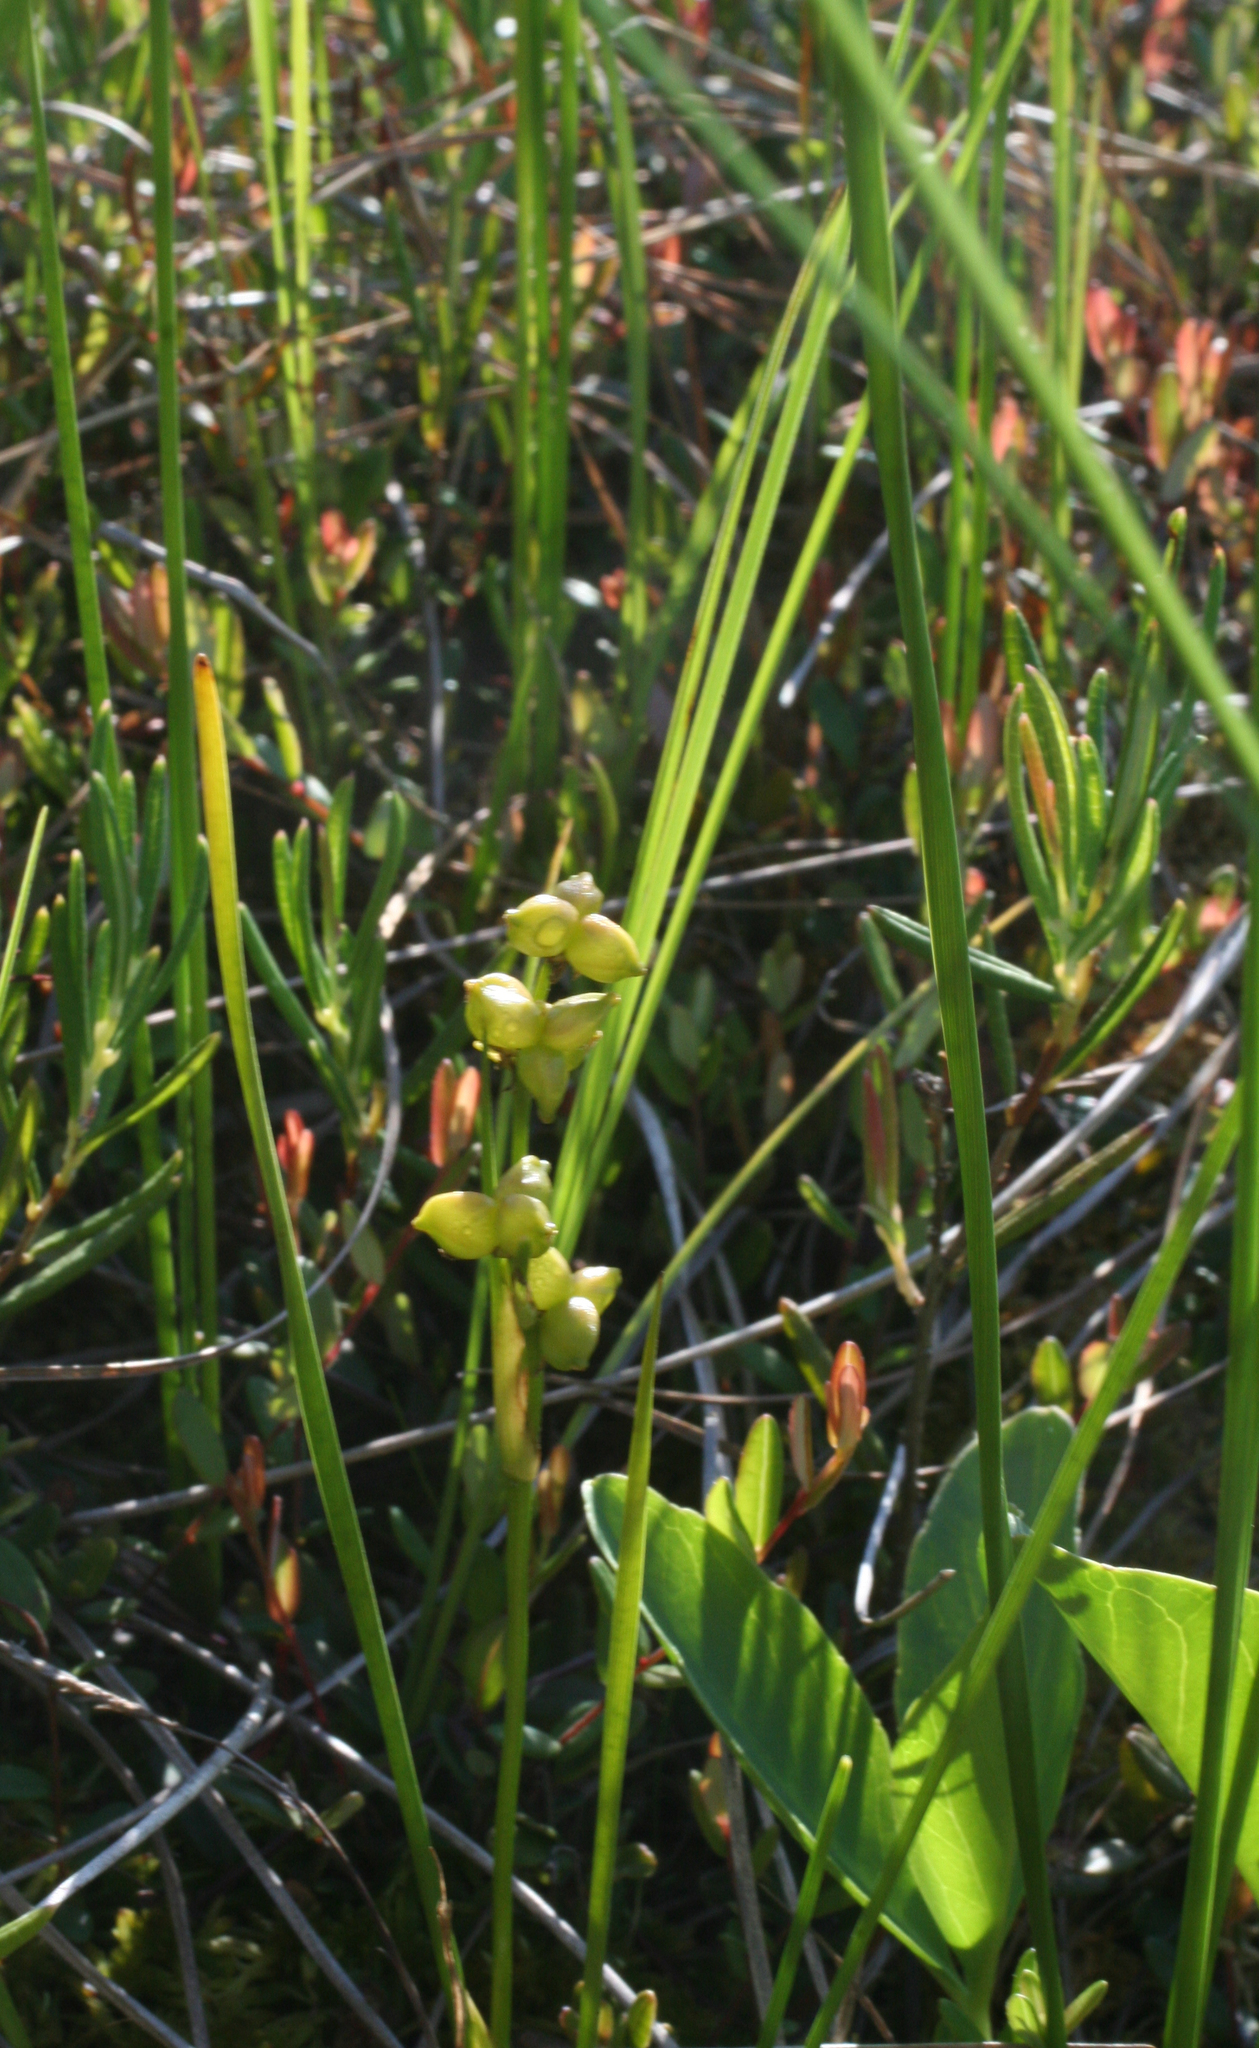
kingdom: Plantae
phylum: Tracheophyta
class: Liliopsida
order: Alismatales
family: Scheuchzeriaceae
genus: Scheuchzeria
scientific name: Scheuchzeria palustris
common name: Rannoch-rush
